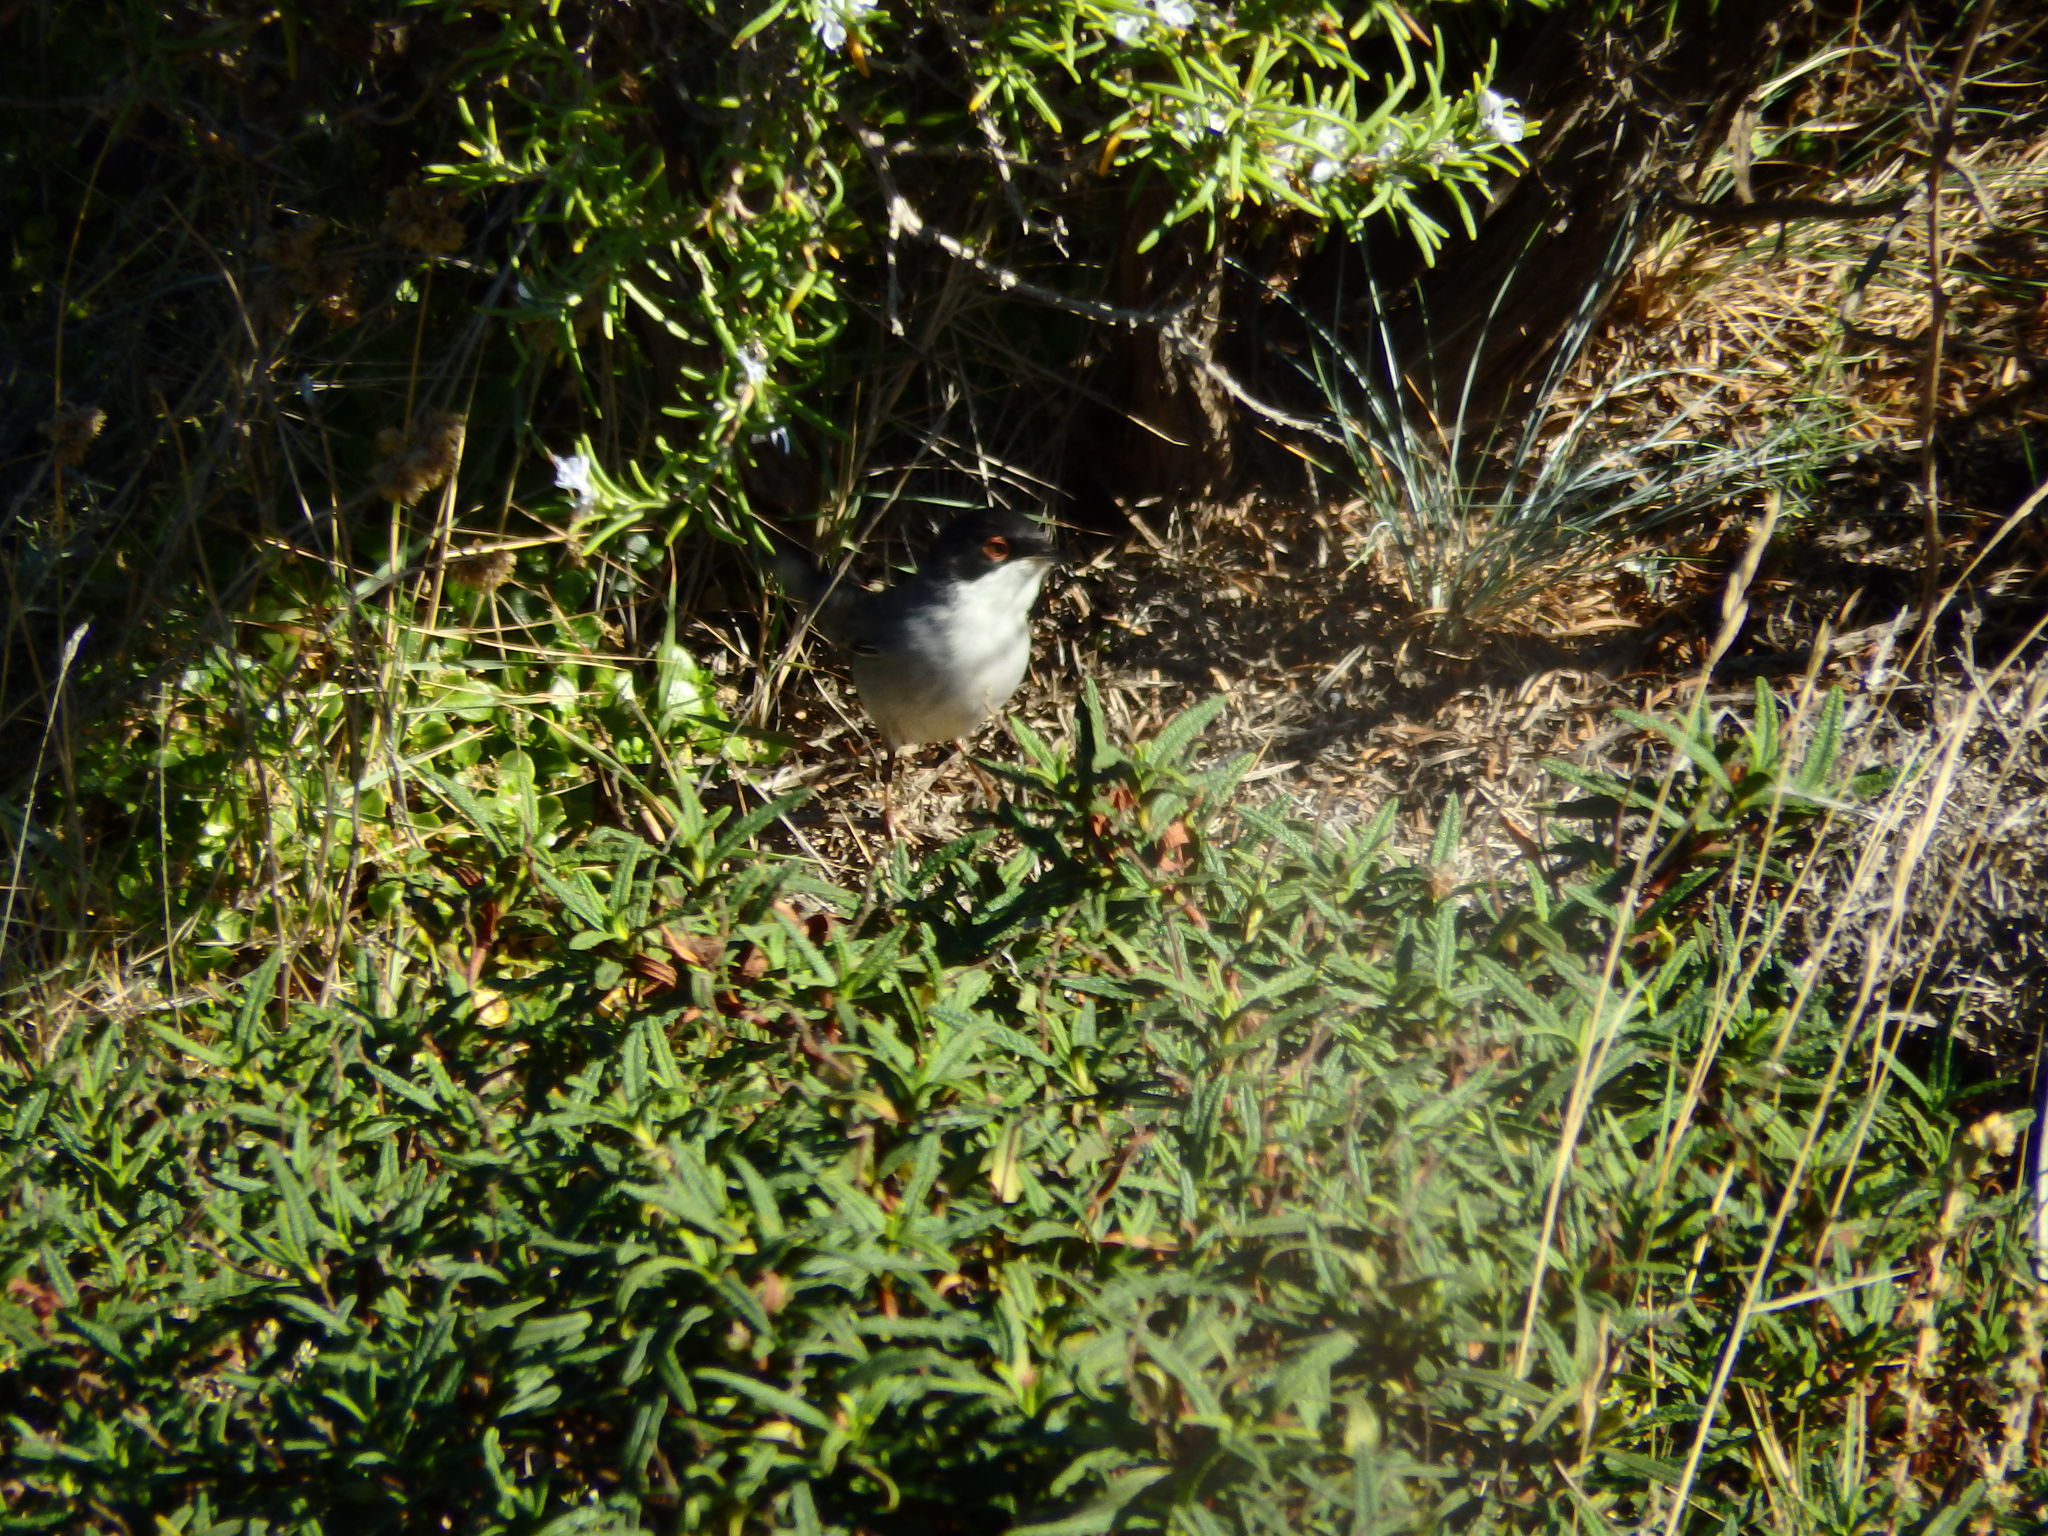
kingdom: Animalia
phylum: Chordata
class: Aves
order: Passeriformes
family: Sylviidae
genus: Curruca
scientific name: Curruca melanocephala
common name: Sardinian warbler
